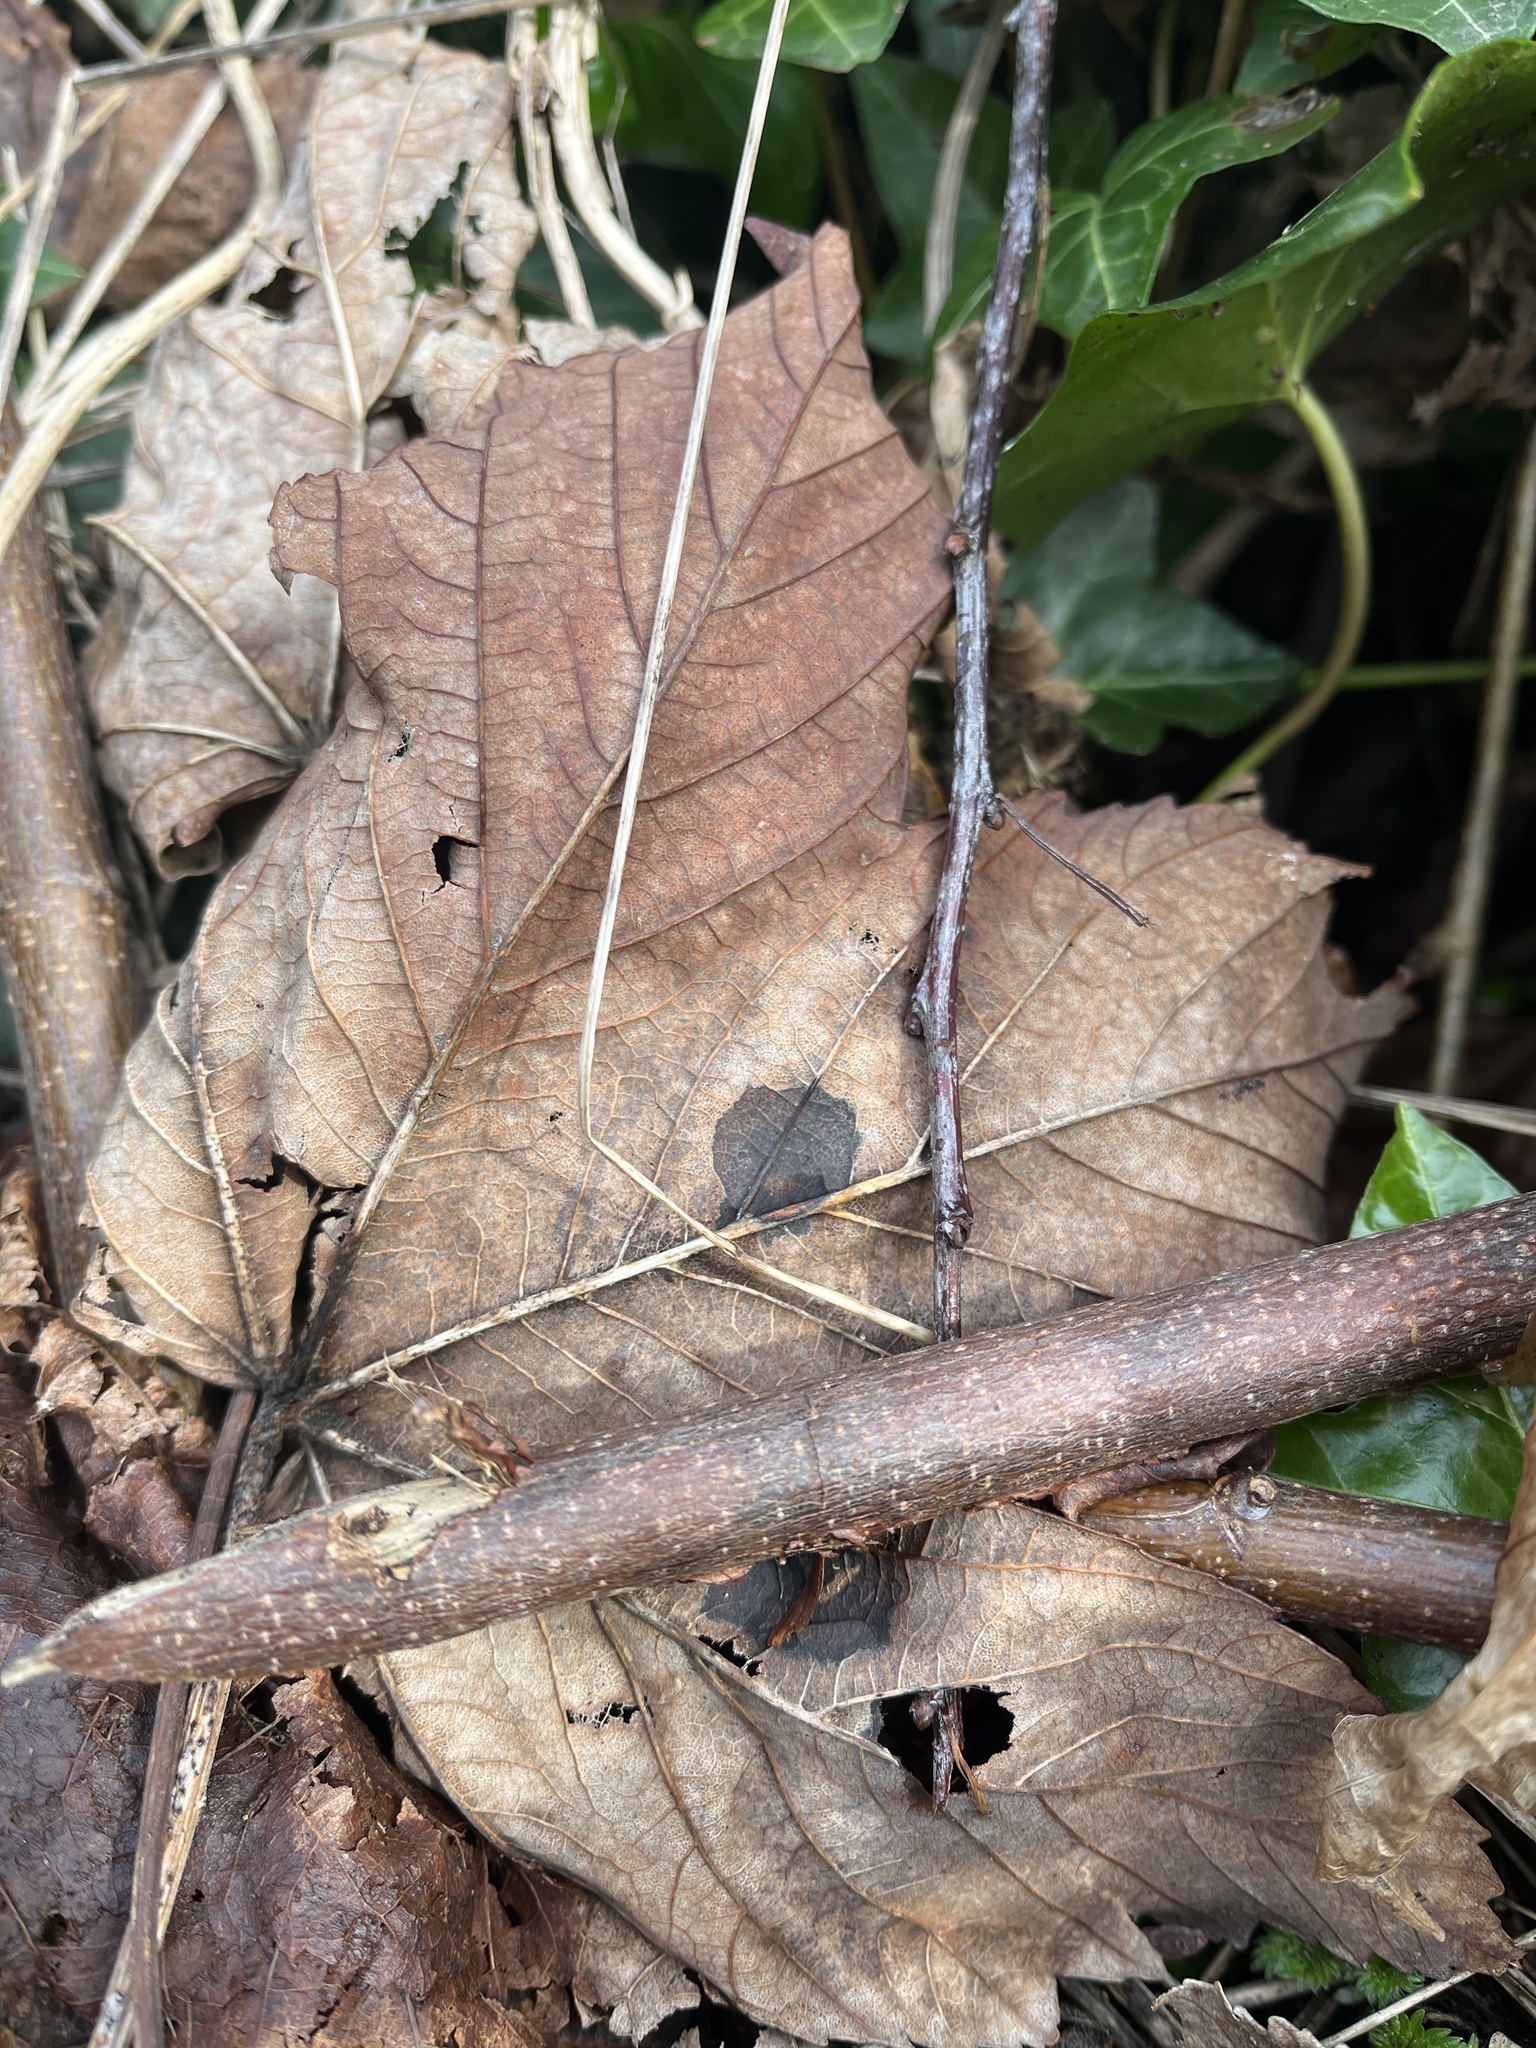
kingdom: Fungi
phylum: Ascomycota
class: Leotiomycetes
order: Rhytismatales
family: Rhytismataceae
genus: Rhytisma
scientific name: Rhytisma acerinum
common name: European tar spot
